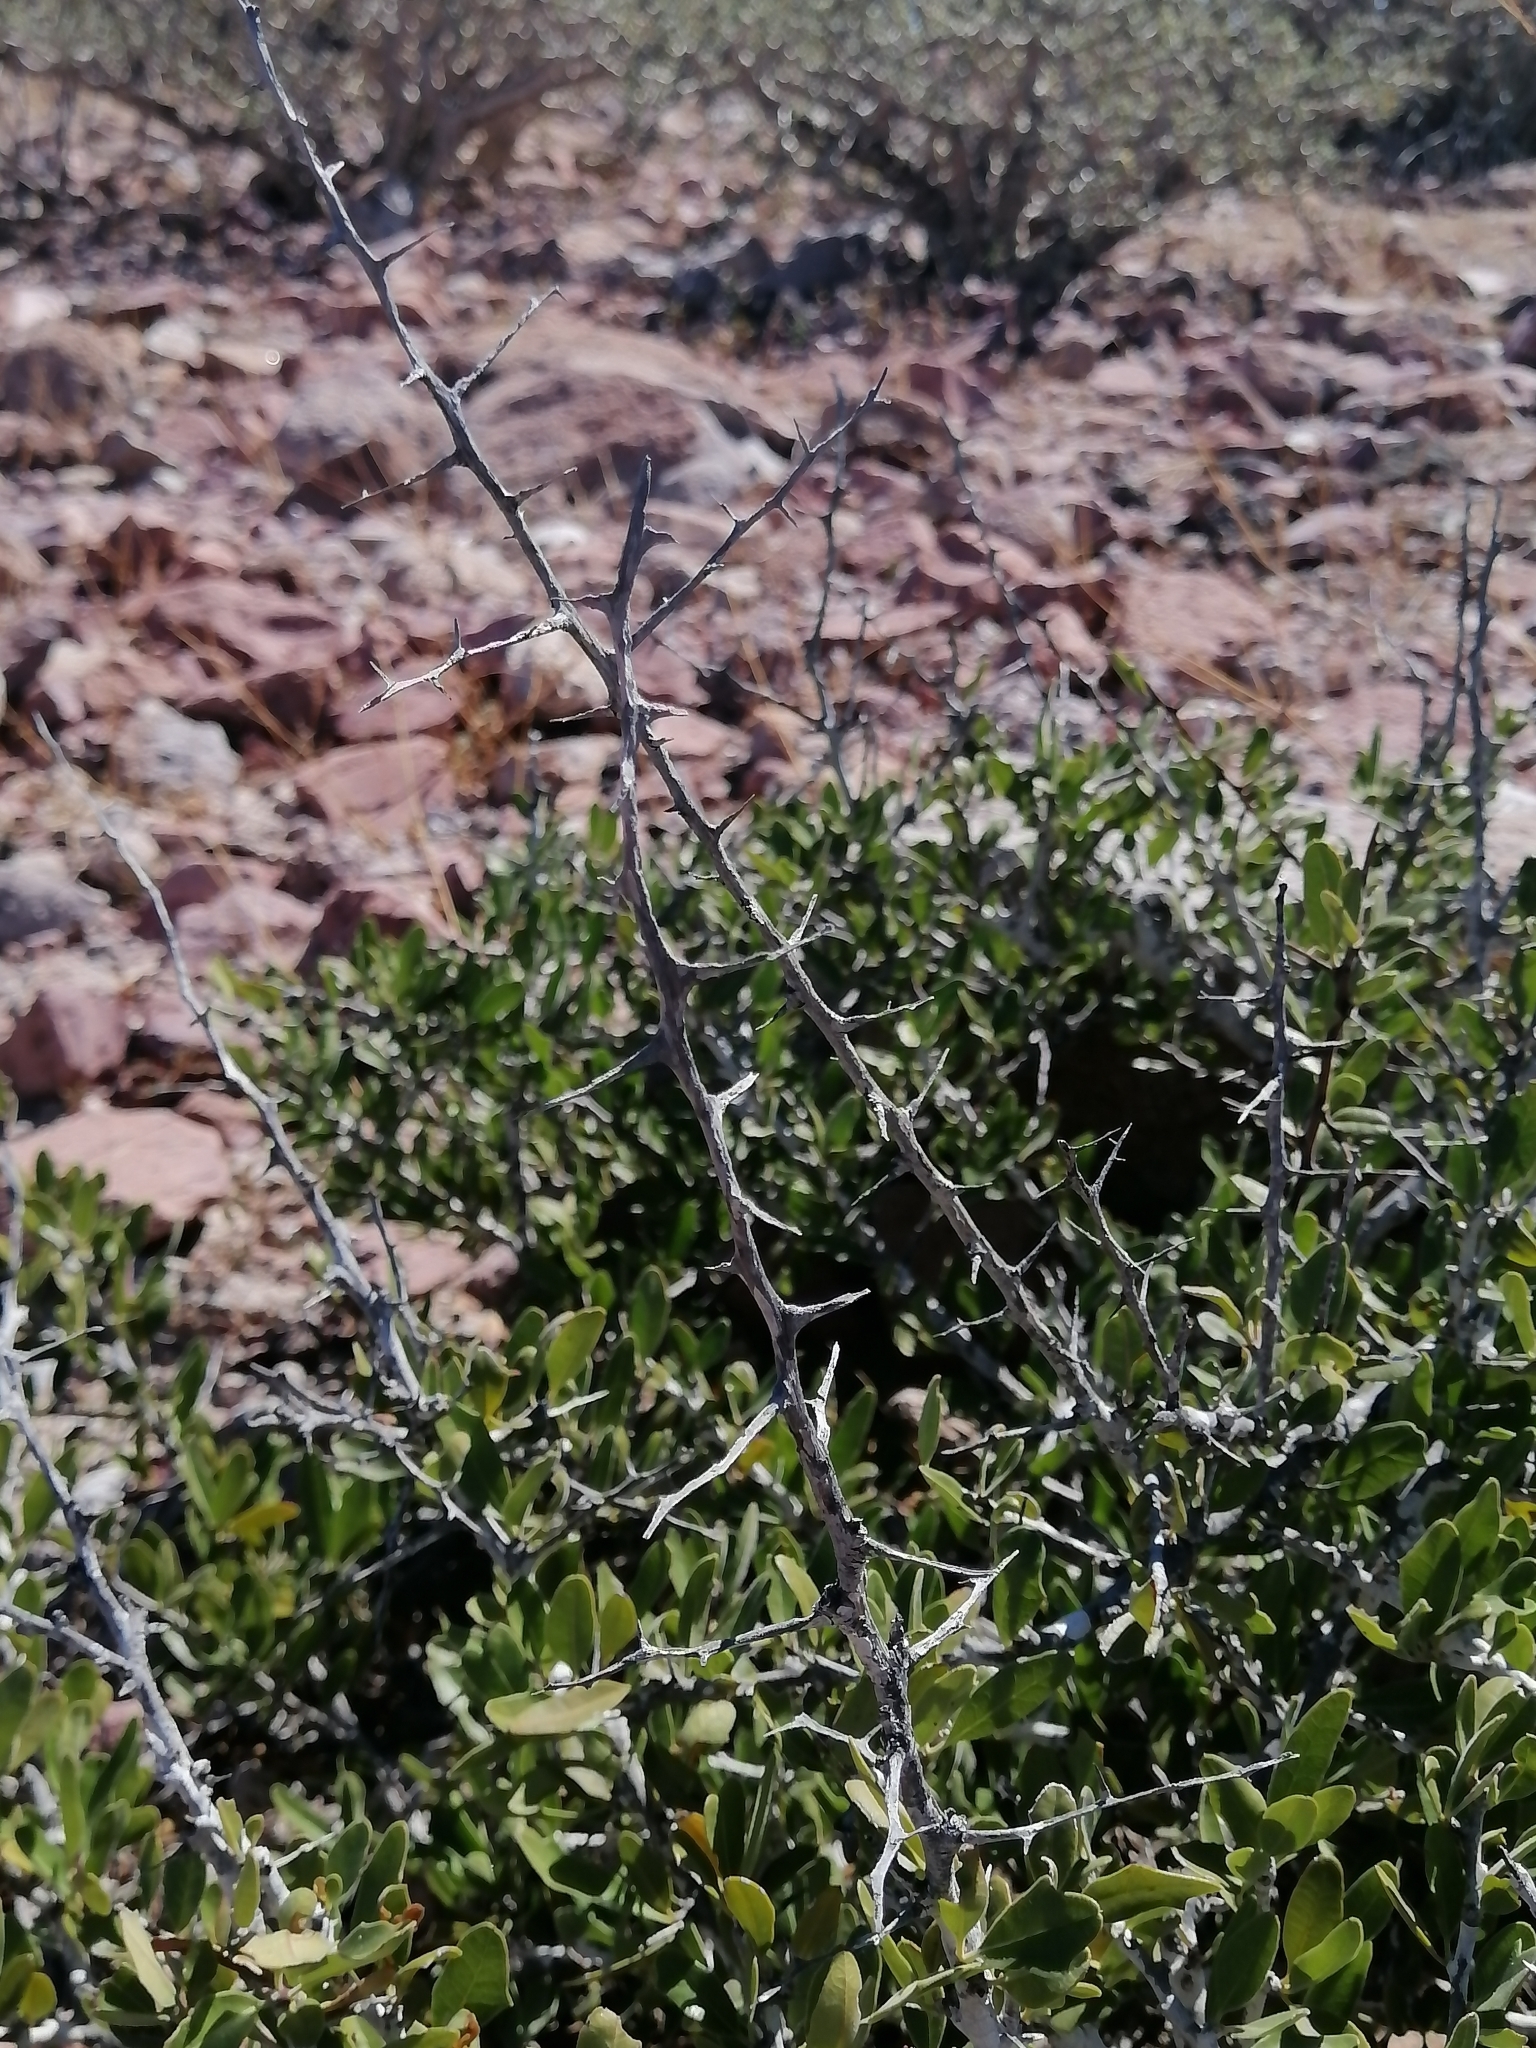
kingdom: Plantae
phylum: Tracheophyta
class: Magnoliopsida
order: Sapindales
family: Simaroubaceae
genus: Castela
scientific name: Castela peninsularis
